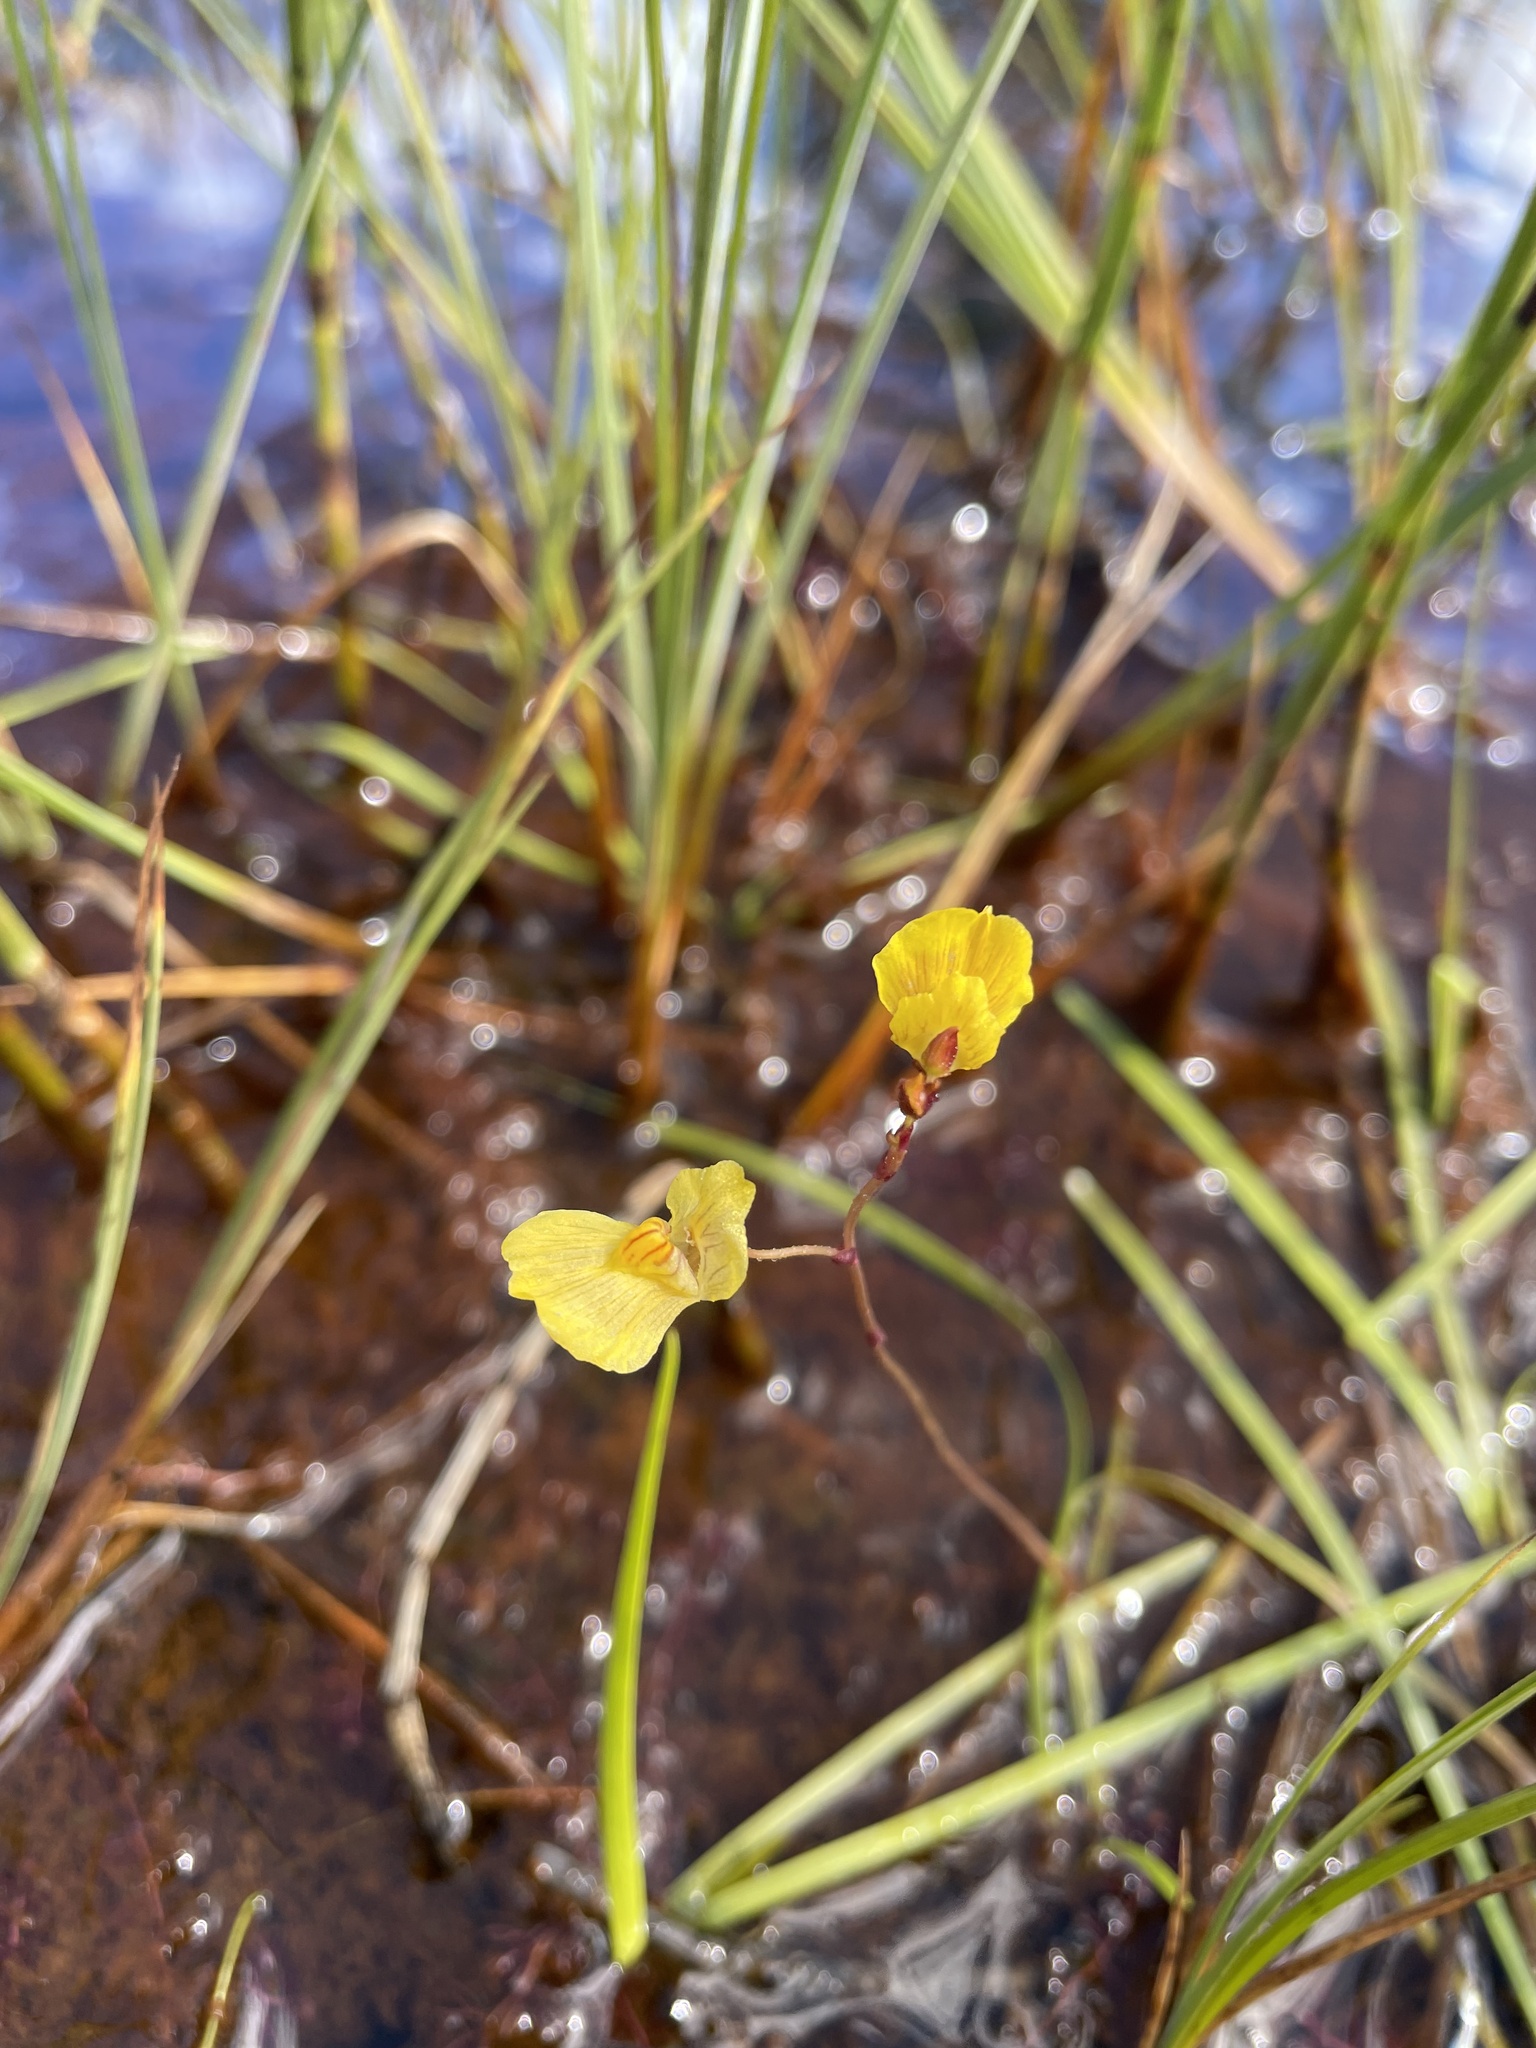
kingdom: Plantae
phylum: Tracheophyta
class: Magnoliopsida
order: Lamiales
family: Lentibulariaceae
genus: Utricularia
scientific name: Utricularia intermedia
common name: Intermediate bladderwort
